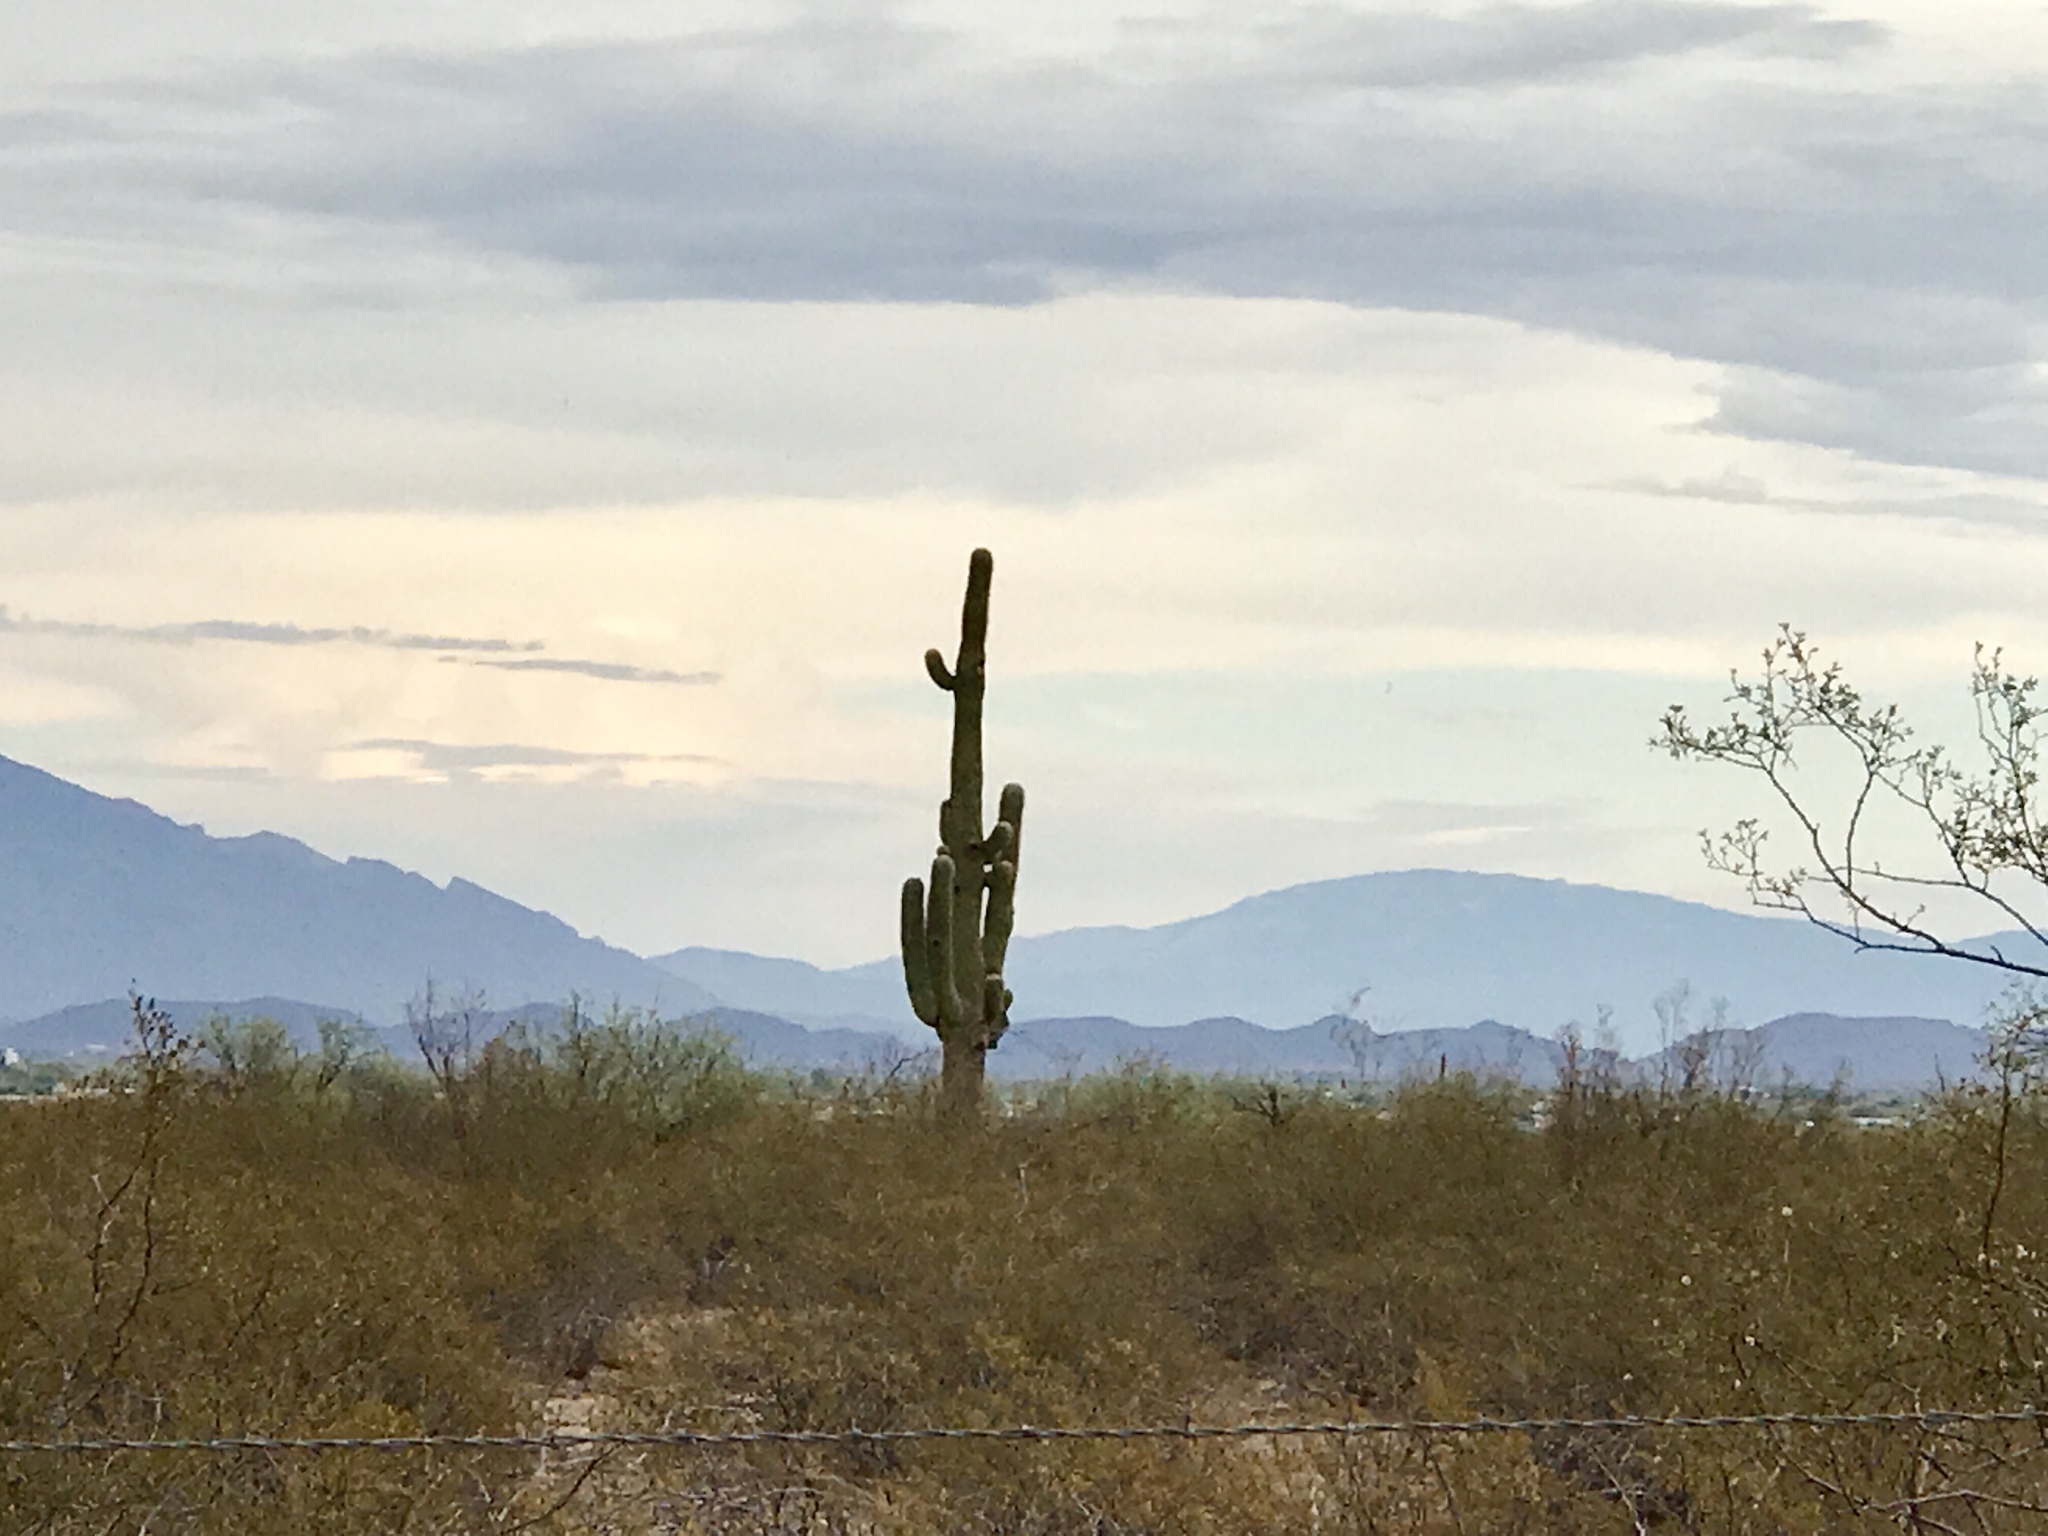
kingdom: Plantae
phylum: Tracheophyta
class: Magnoliopsida
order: Caryophyllales
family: Cactaceae
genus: Carnegiea
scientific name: Carnegiea gigantea
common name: Saguaro
